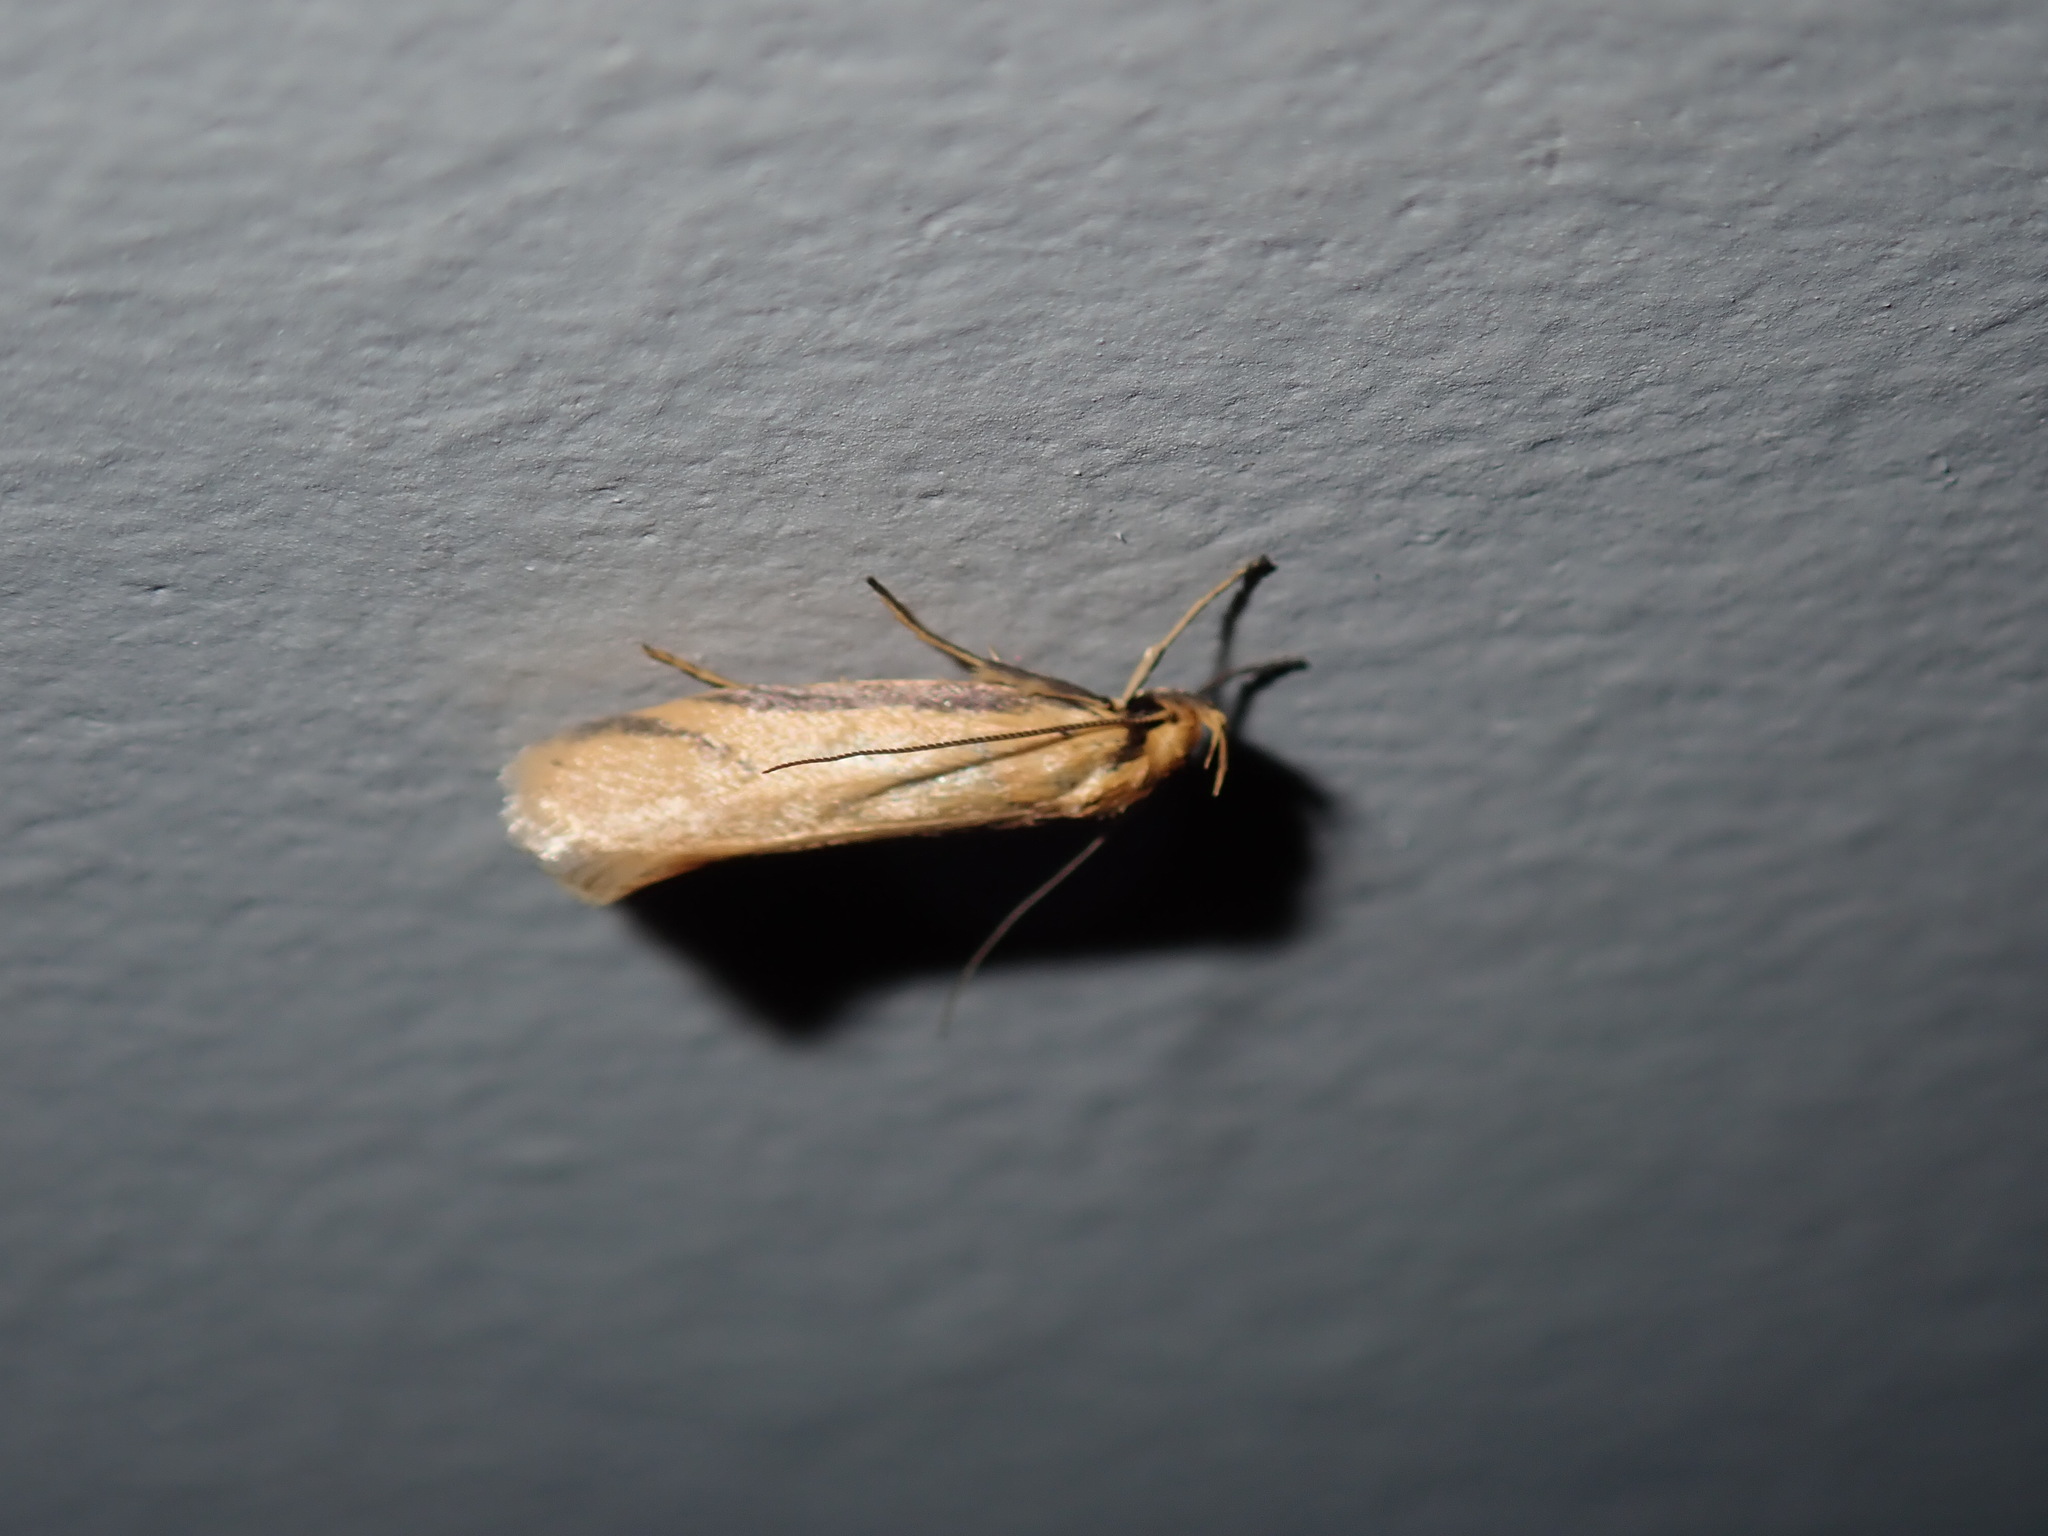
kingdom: Animalia
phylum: Arthropoda
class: Insecta
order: Lepidoptera
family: Oecophoridae
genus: Philobota
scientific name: Philobota latifissella
